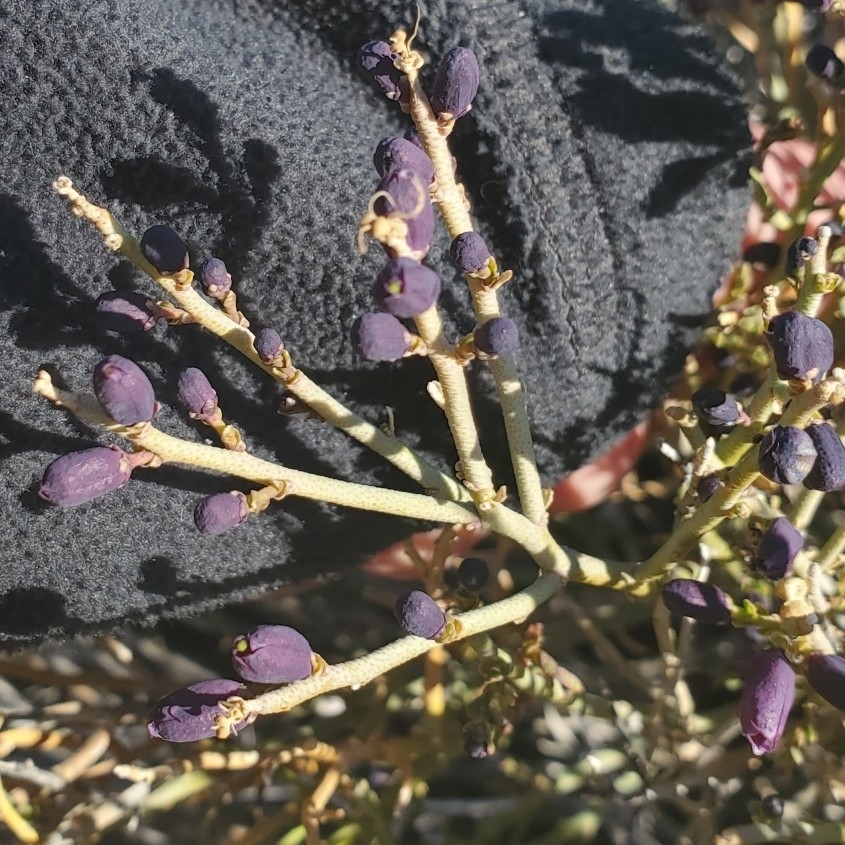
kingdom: Plantae
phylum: Tracheophyta
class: Magnoliopsida
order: Sapindales
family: Rutaceae
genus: Thamnosma
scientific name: Thamnosma montana
